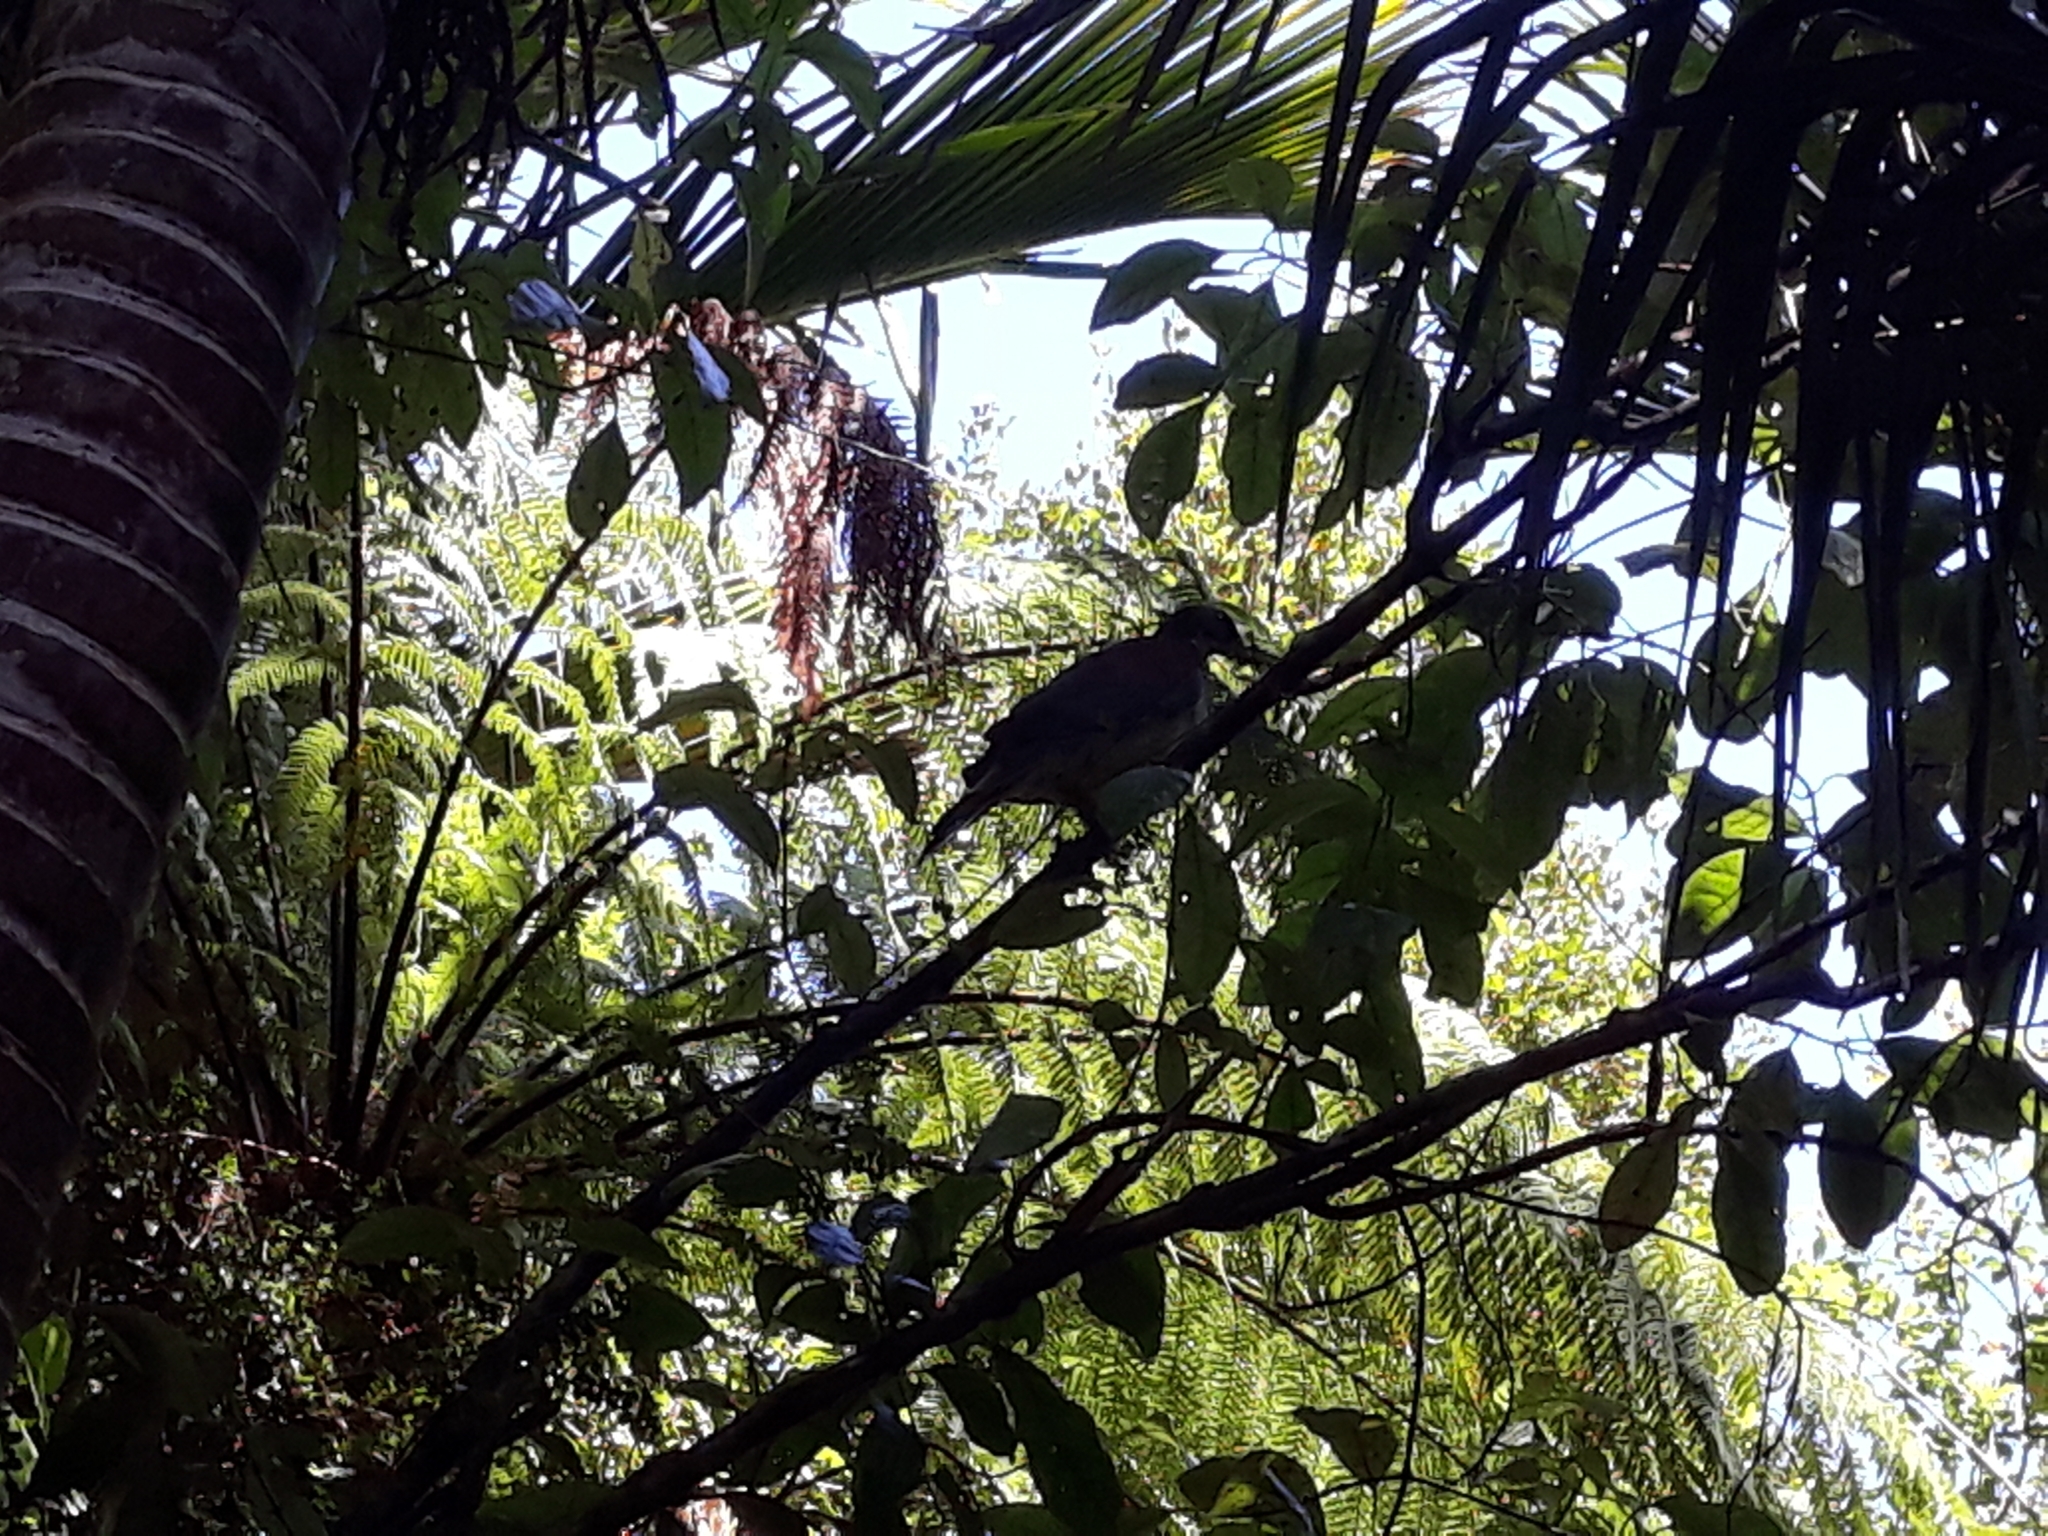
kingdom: Animalia
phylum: Chordata
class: Aves
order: Columbiformes
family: Columbidae
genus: Hemiphaga
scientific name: Hemiphaga novaeseelandiae
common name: New zealand pigeon
